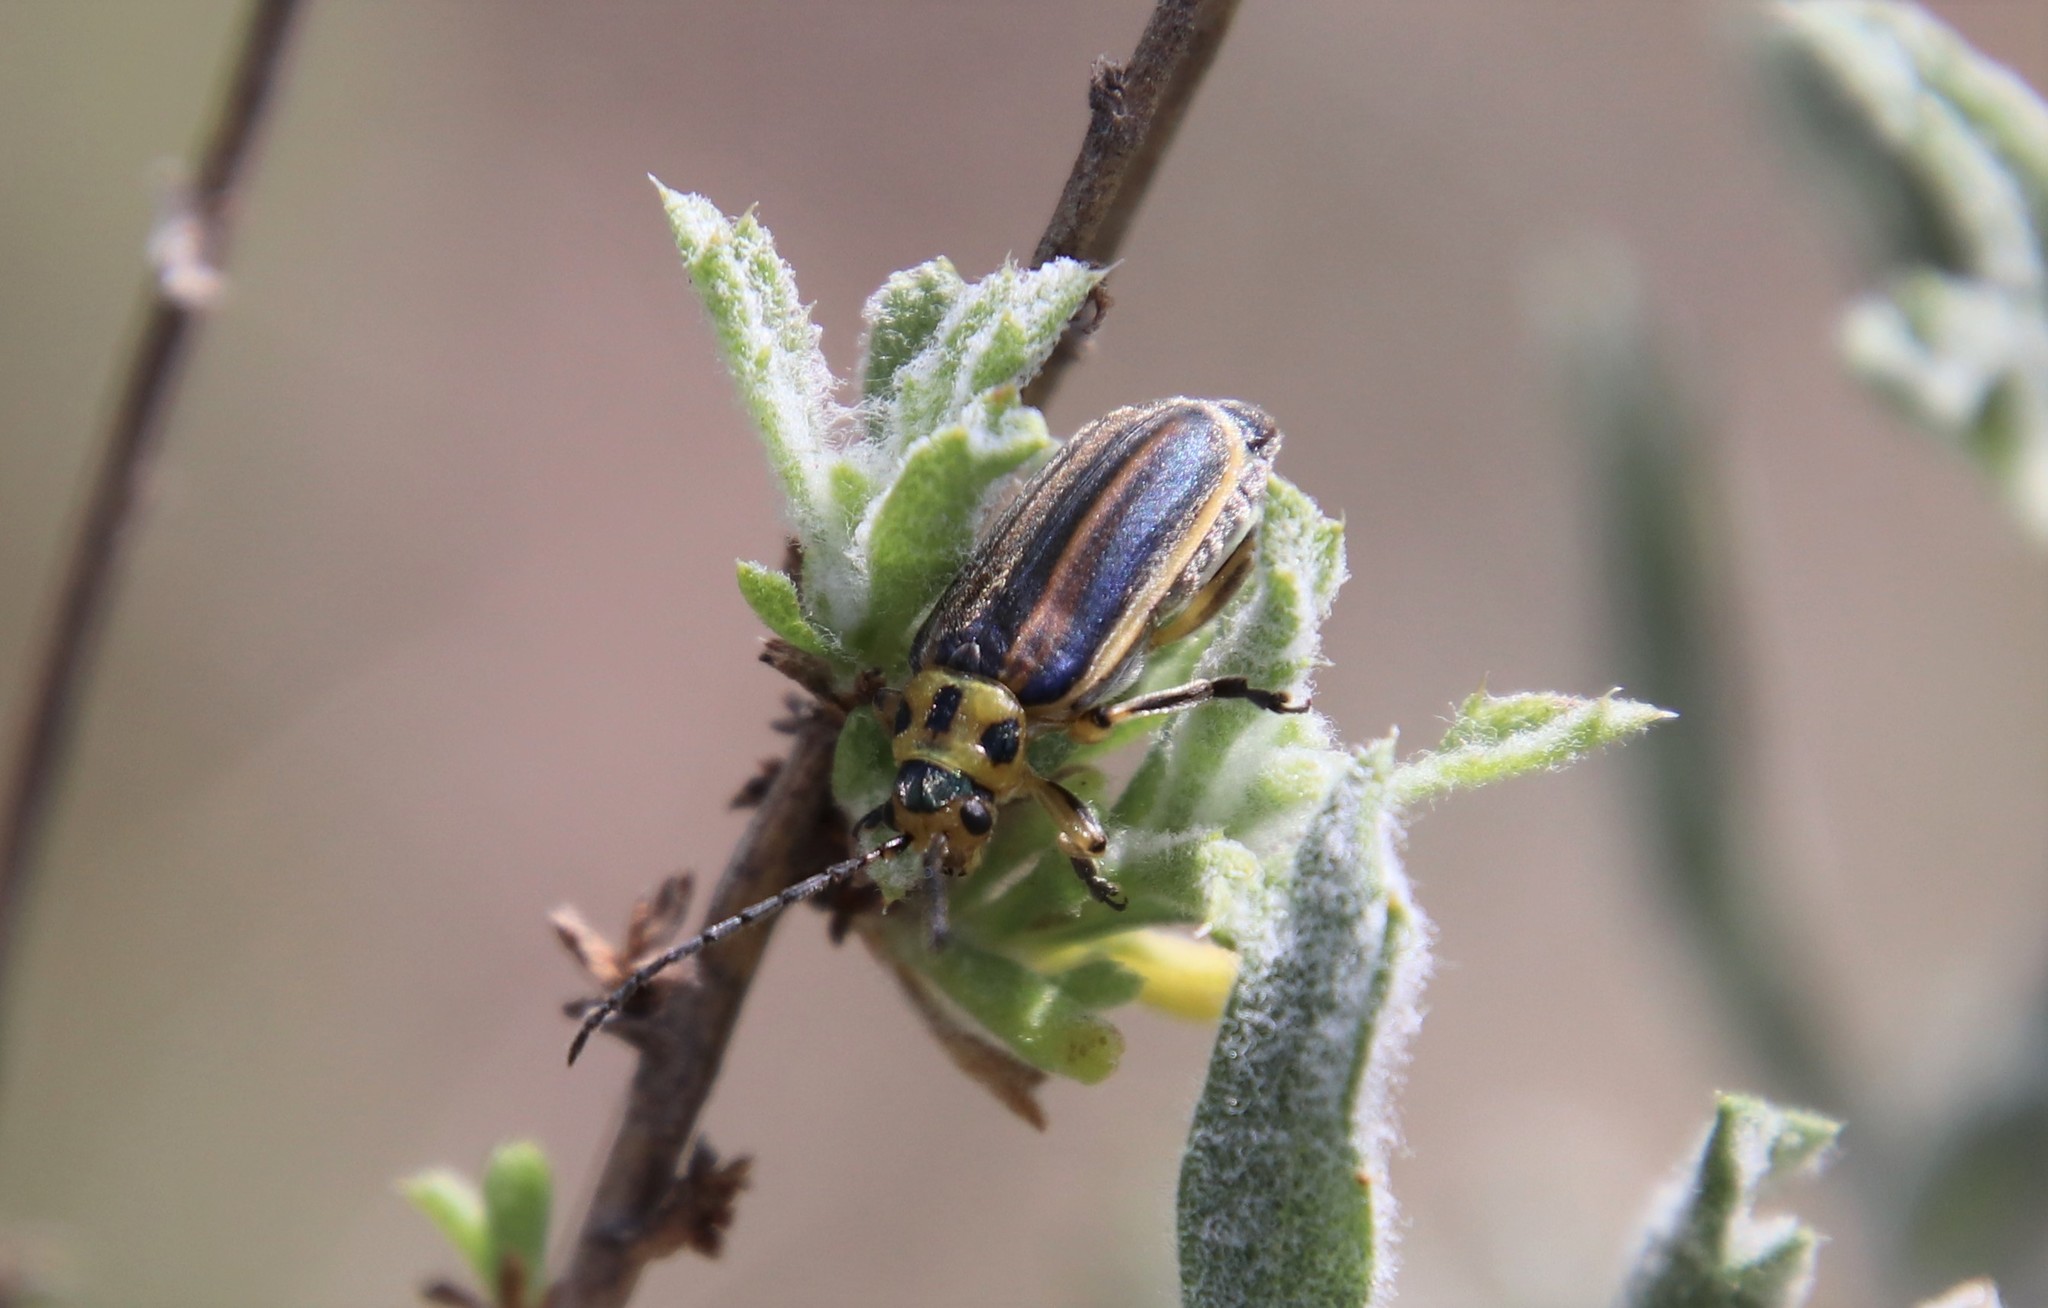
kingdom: Animalia
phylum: Arthropoda
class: Insecta
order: Coleoptera
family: Chrysomelidae
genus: Trirhabda
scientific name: Trirhabda luteocincta
